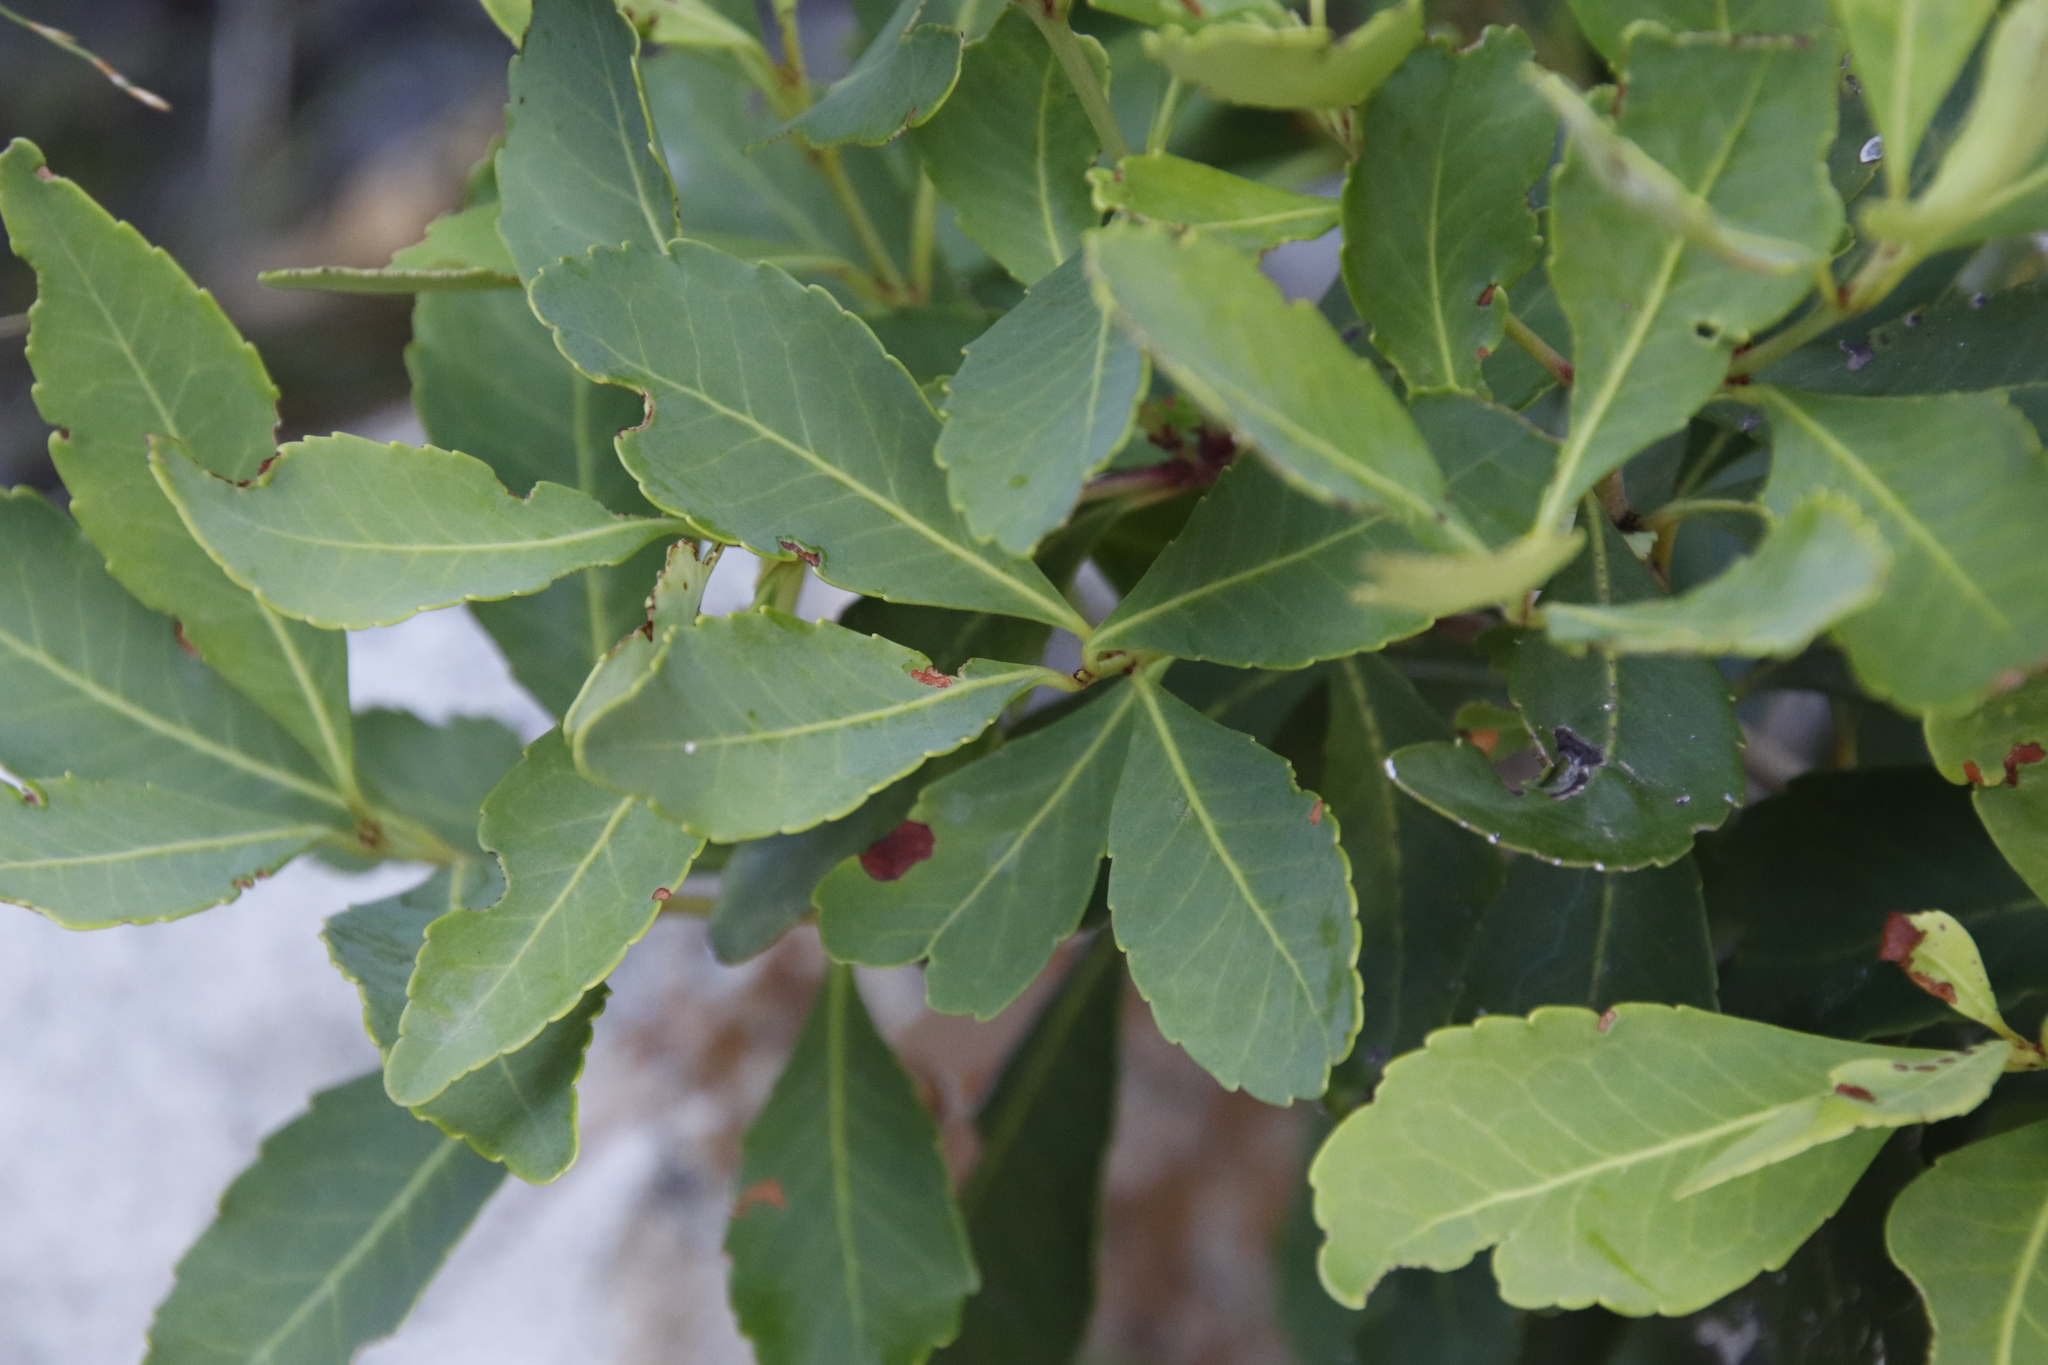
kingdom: Plantae
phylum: Tracheophyta
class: Magnoliopsida
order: Celastrales
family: Celastraceae
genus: Elaeodendron
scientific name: Elaeodendron schinoides
